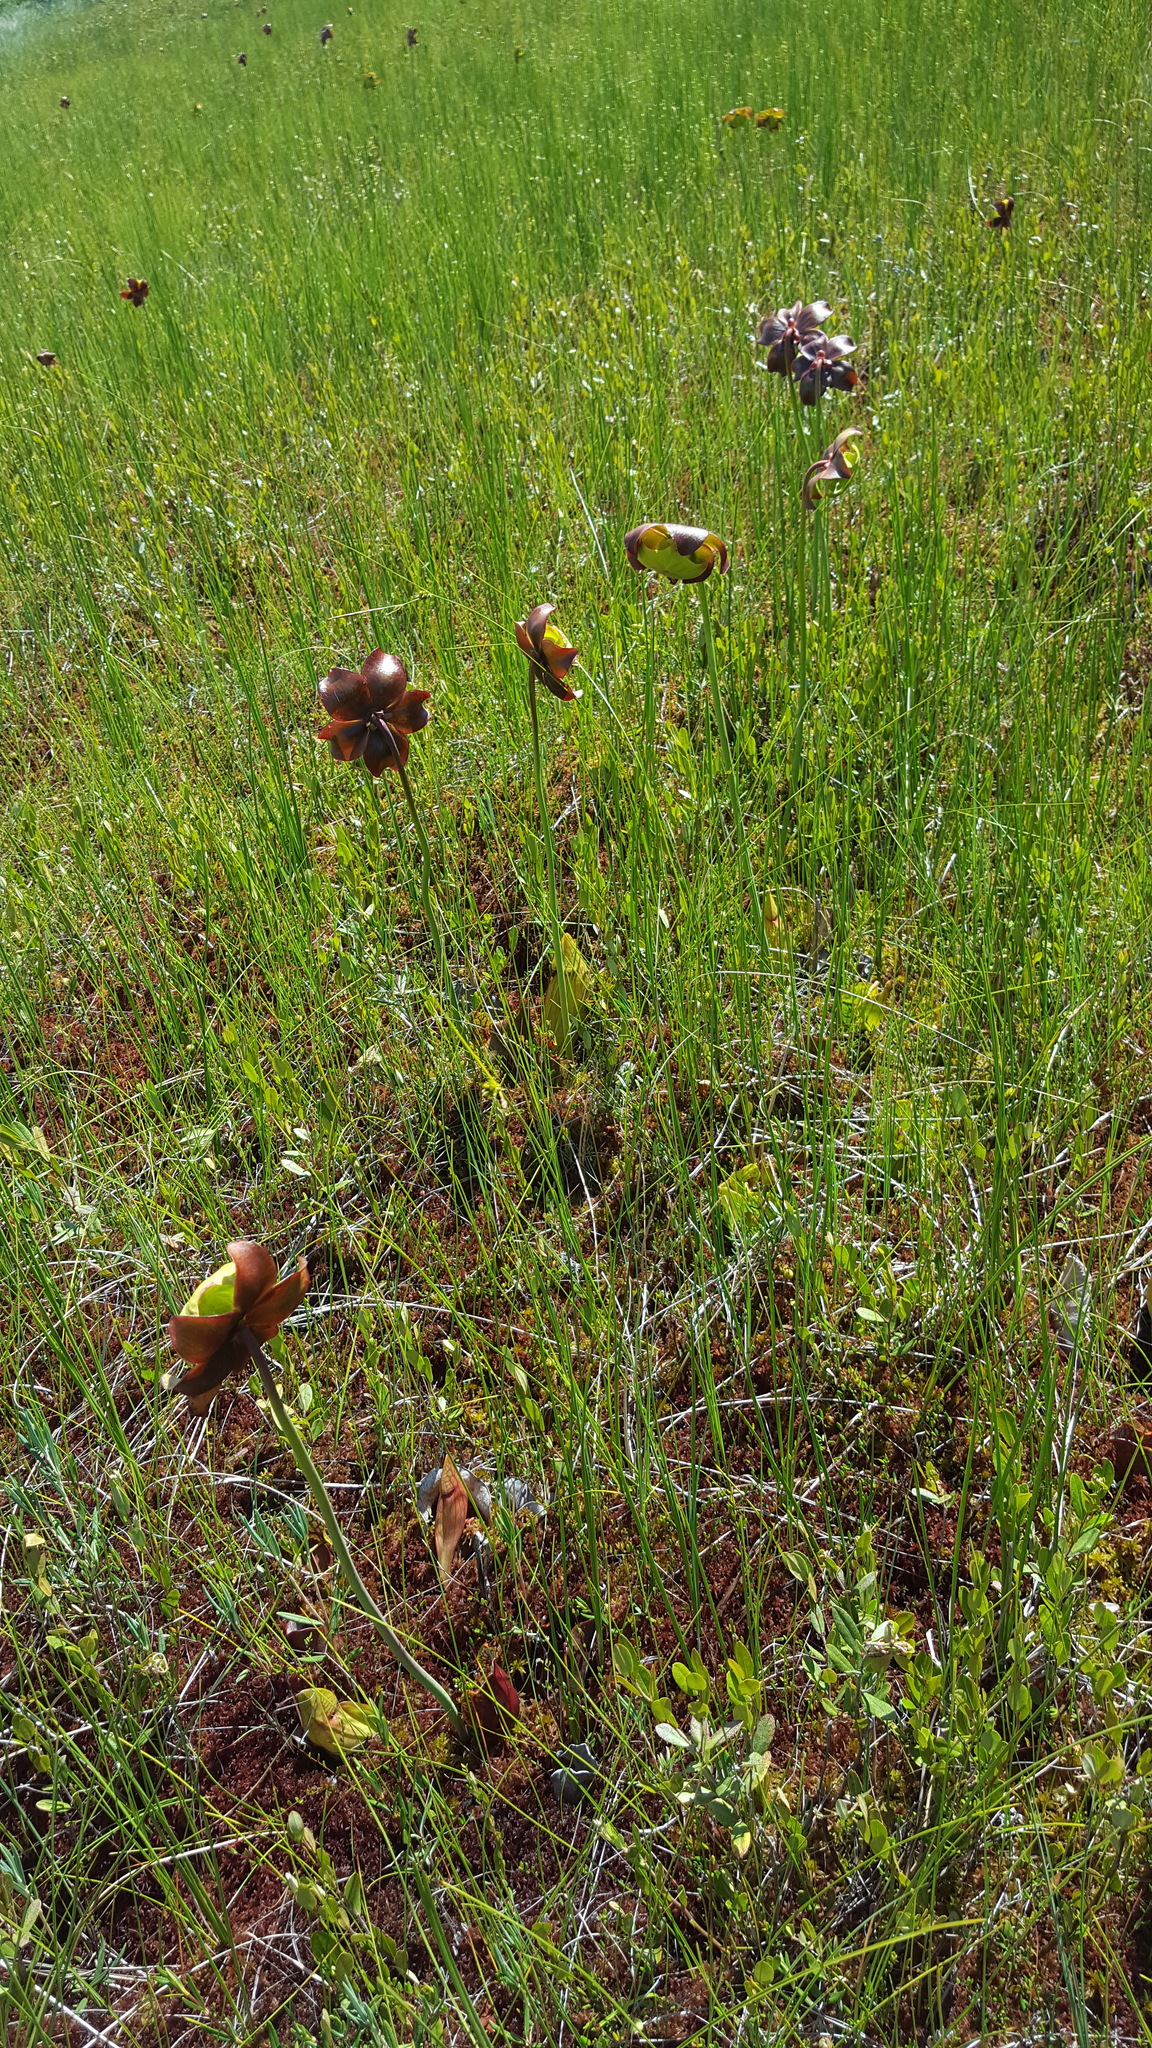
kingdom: Plantae
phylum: Tracheophyta
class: Magnoliopsida
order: Ericales
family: Sarraceniaceae
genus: Sarracenia
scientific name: Sarracenia purpurea
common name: Pitcherplant
